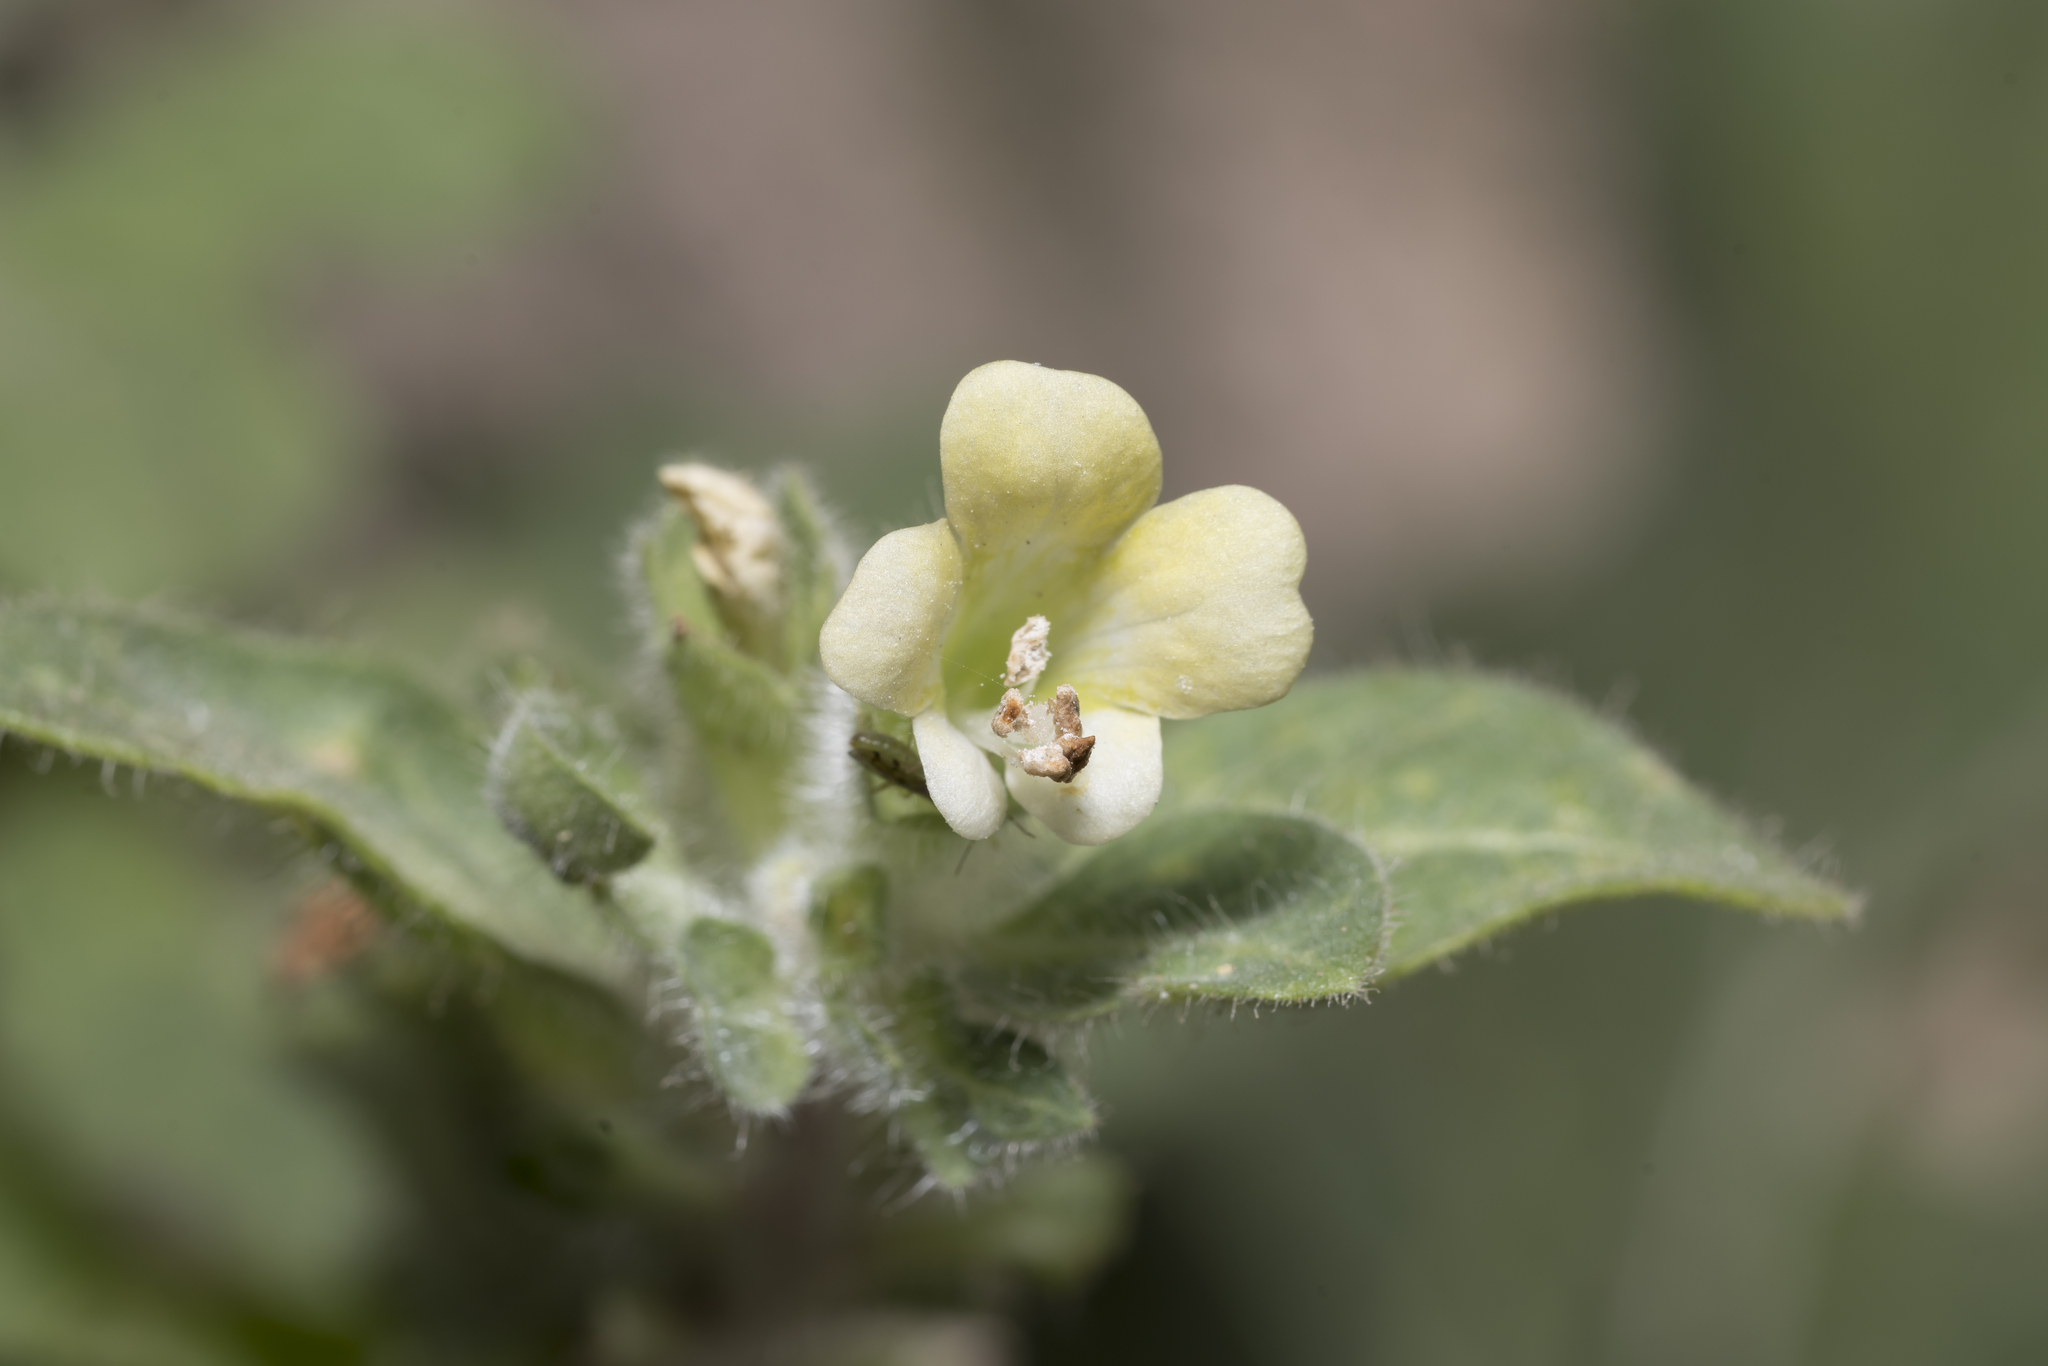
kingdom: Plantae
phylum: Tracheophyta
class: Magnoliopsida
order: Solanales
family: Solanaceae
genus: Hyoscyamus
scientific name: Hyoscyamus albus
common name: White henbane
